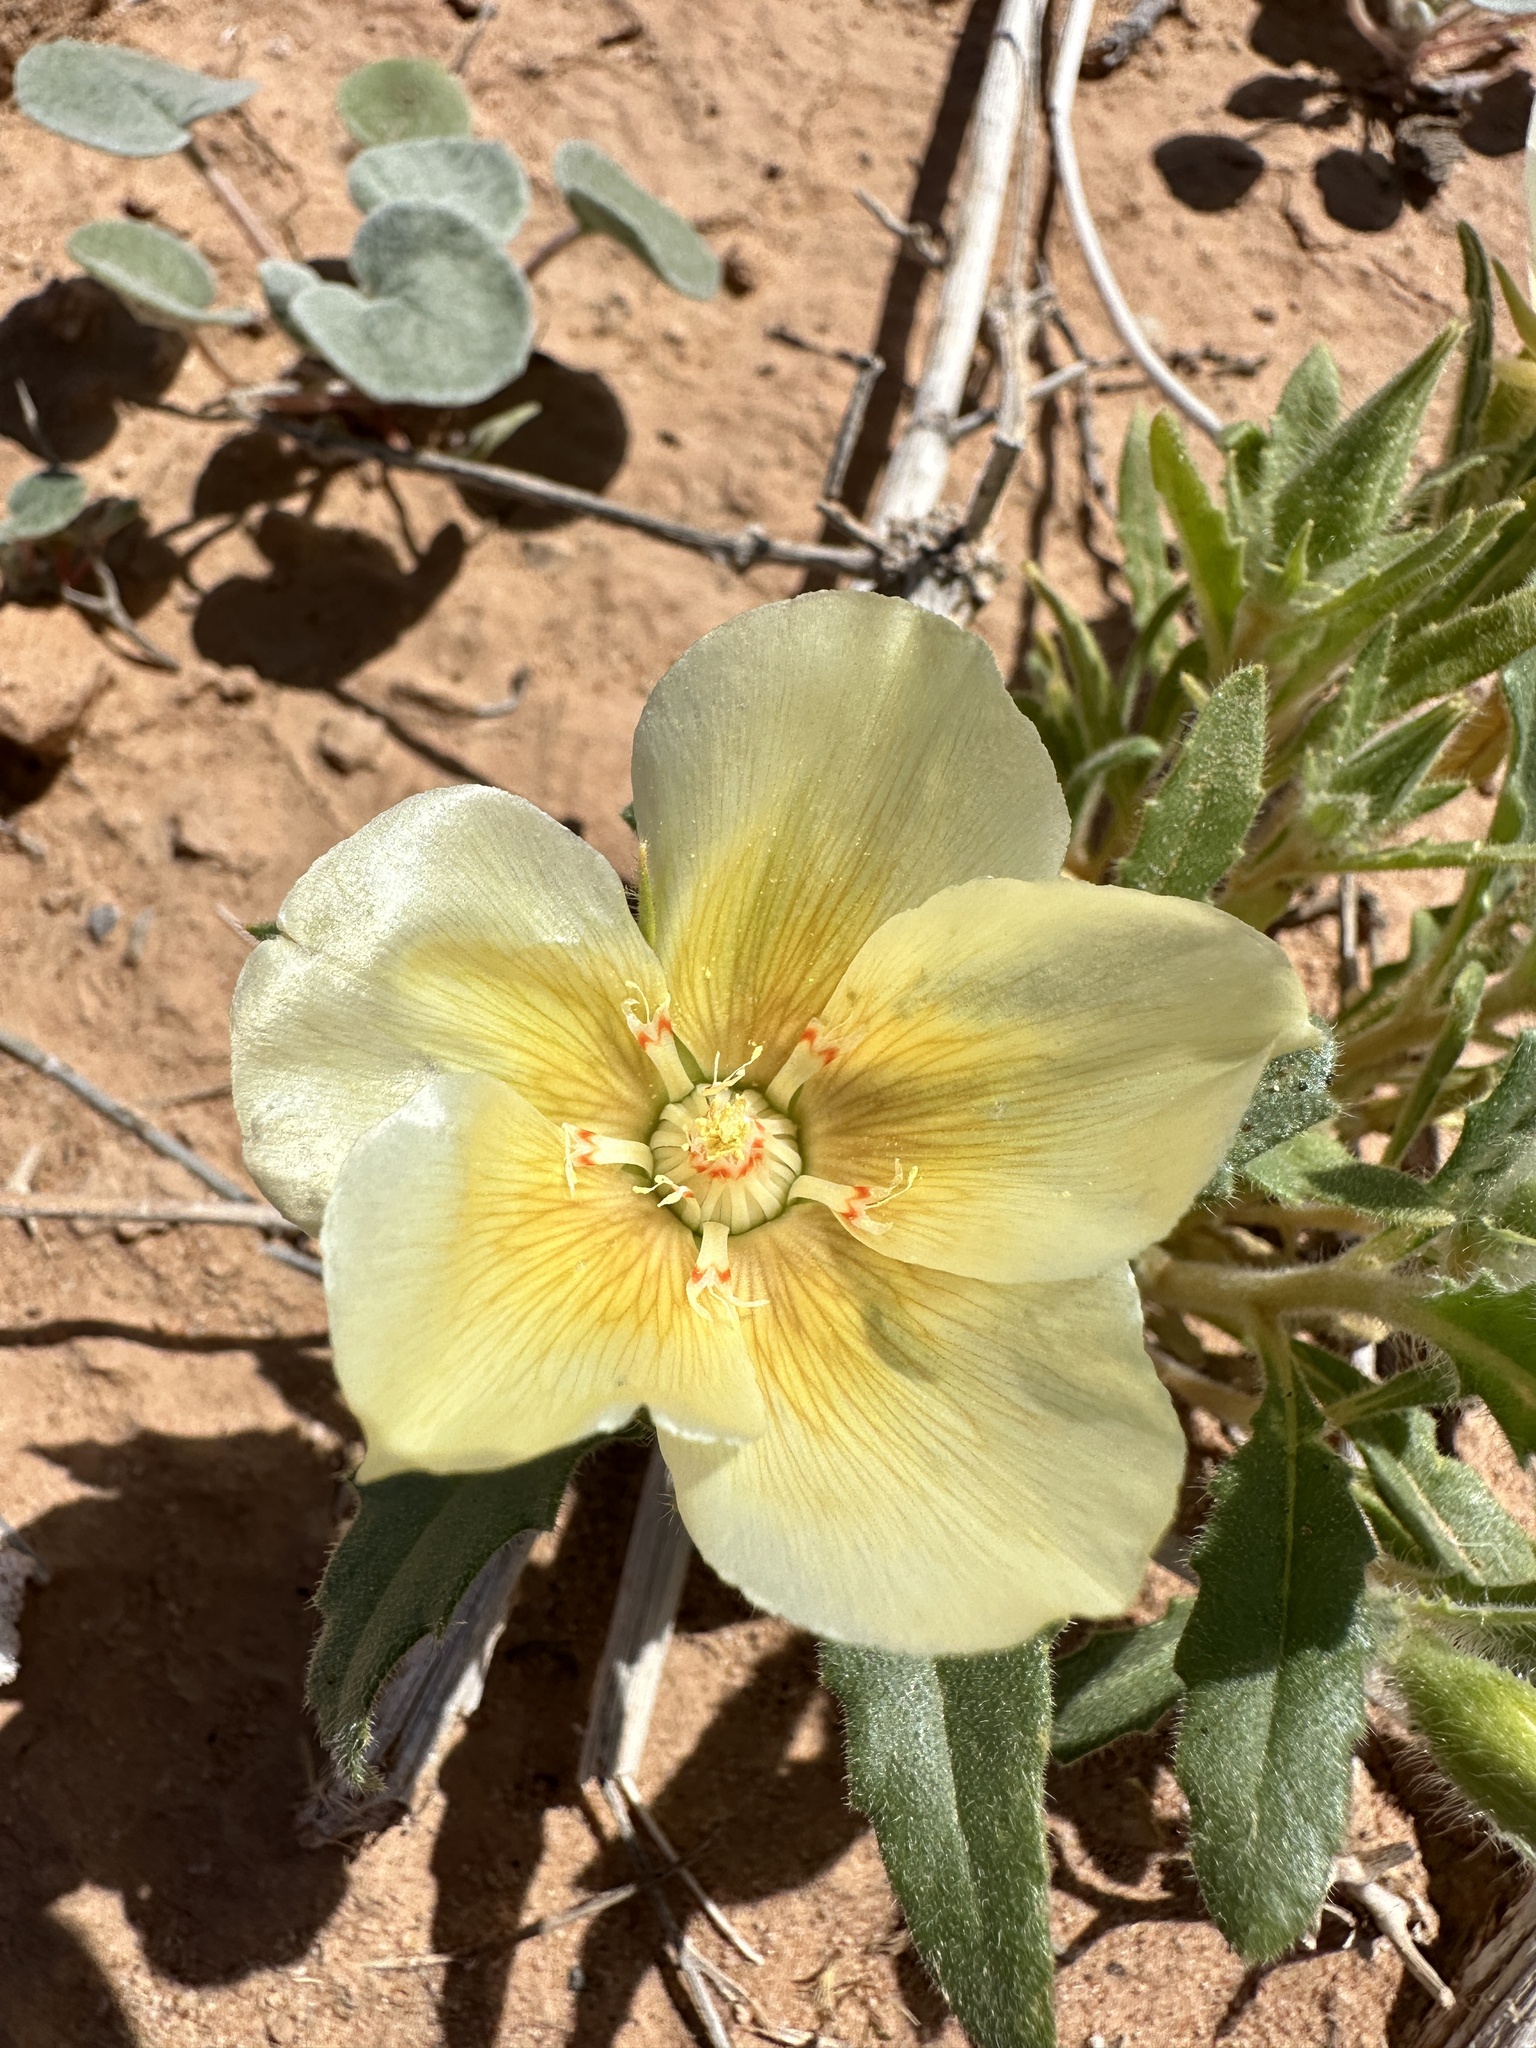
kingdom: Plantae
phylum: Tracheophyta
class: Magnoliopsida
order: Cornales
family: Loasaceae
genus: Mentzelia
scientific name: Mentzelia tricuspis
